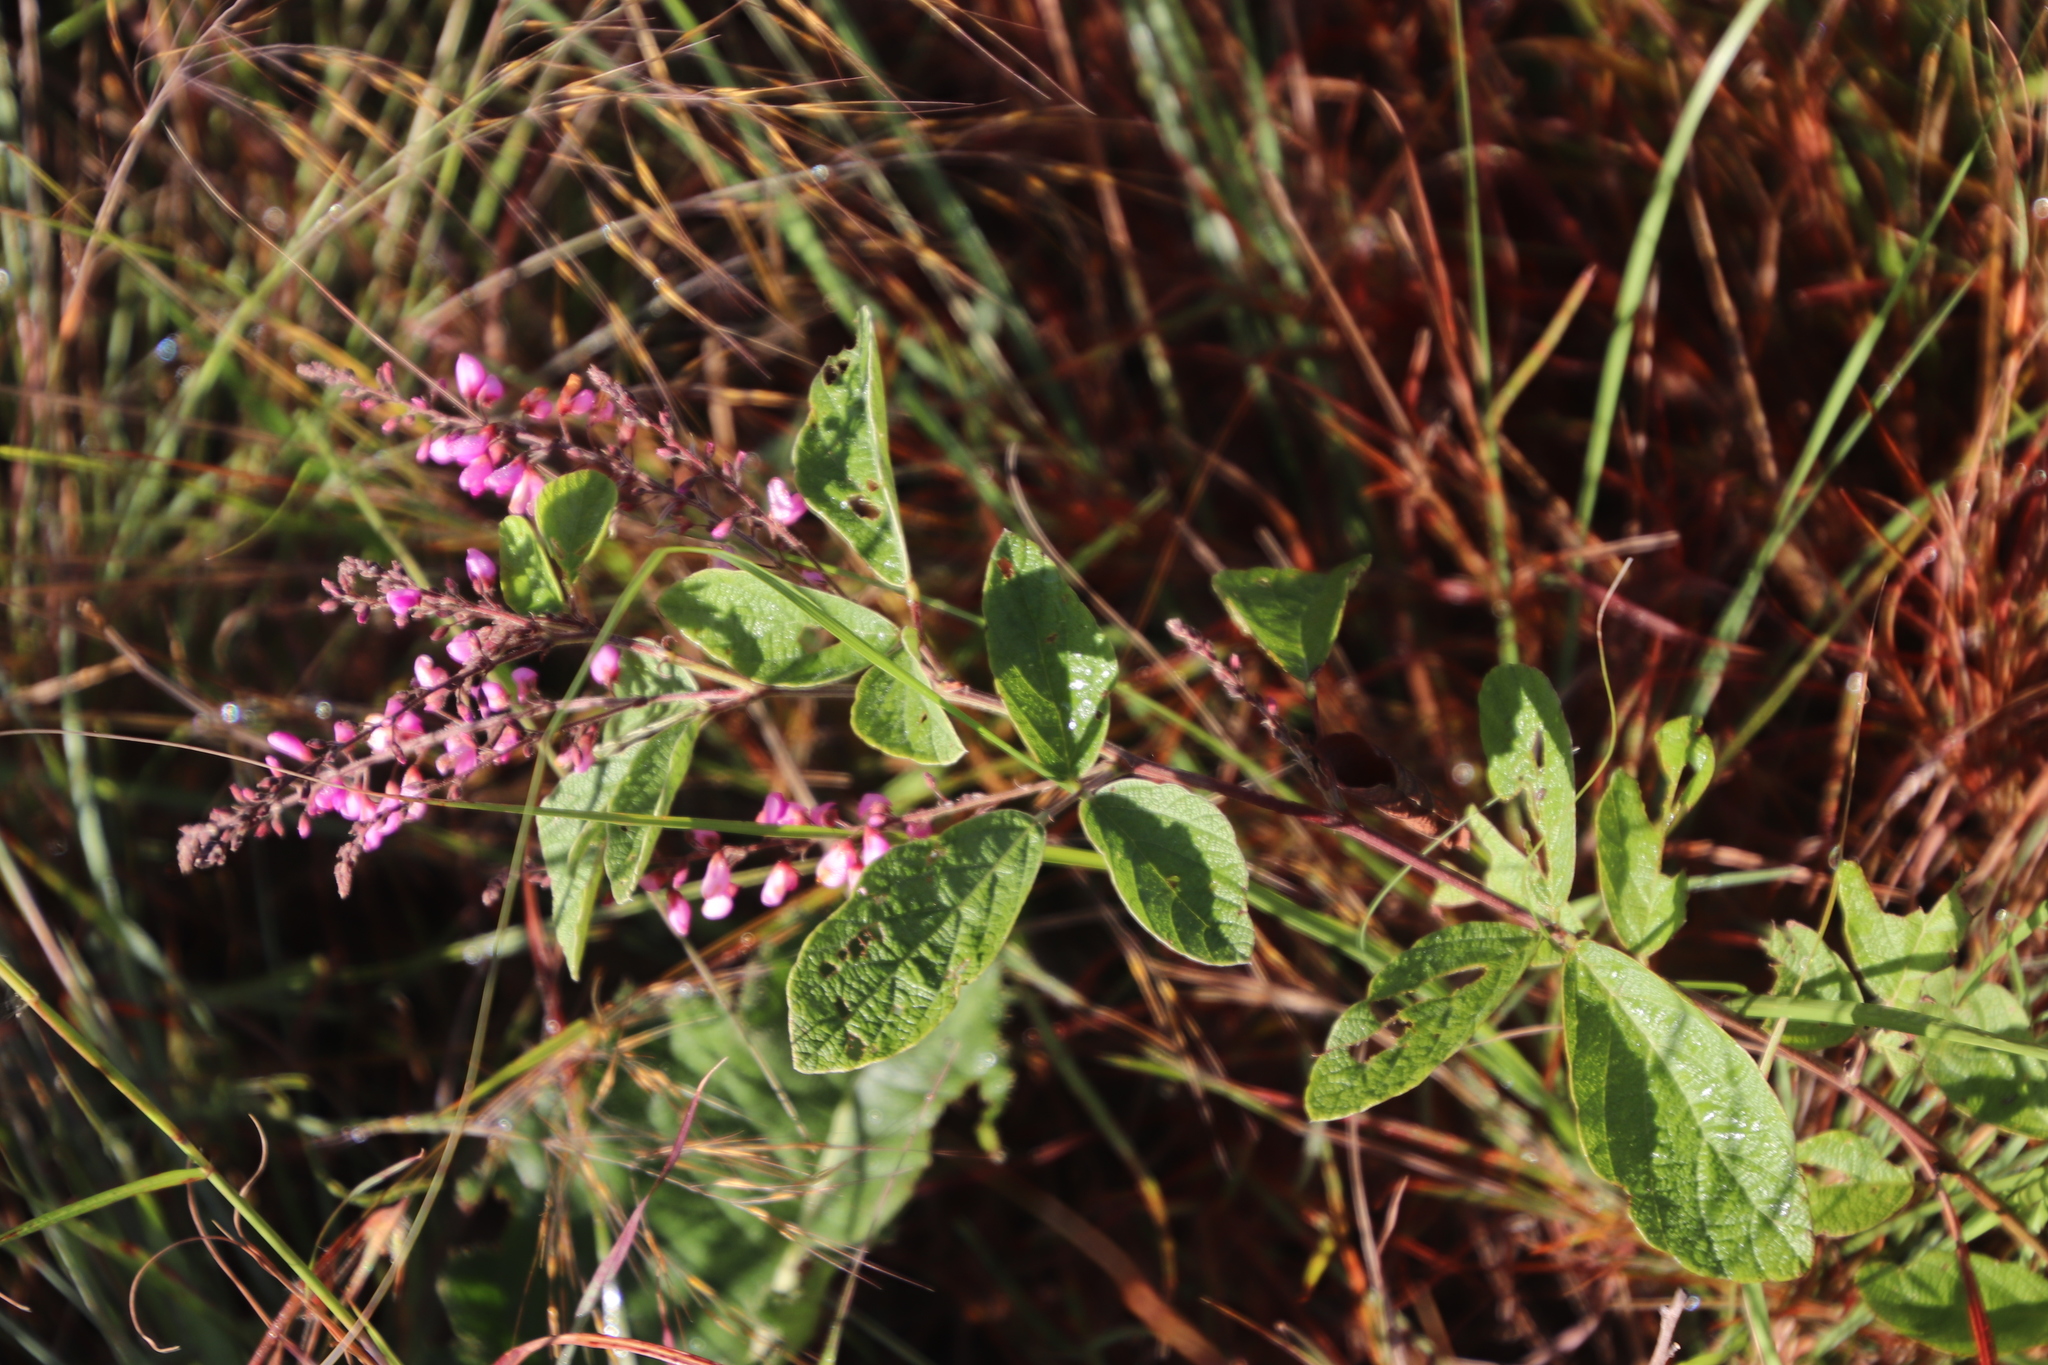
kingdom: Plantae
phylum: Tracheophyta
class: Magnoliopsida
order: Fabales
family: Fabaceae
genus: Pseudarthria
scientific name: Pseudarthria hookeri
